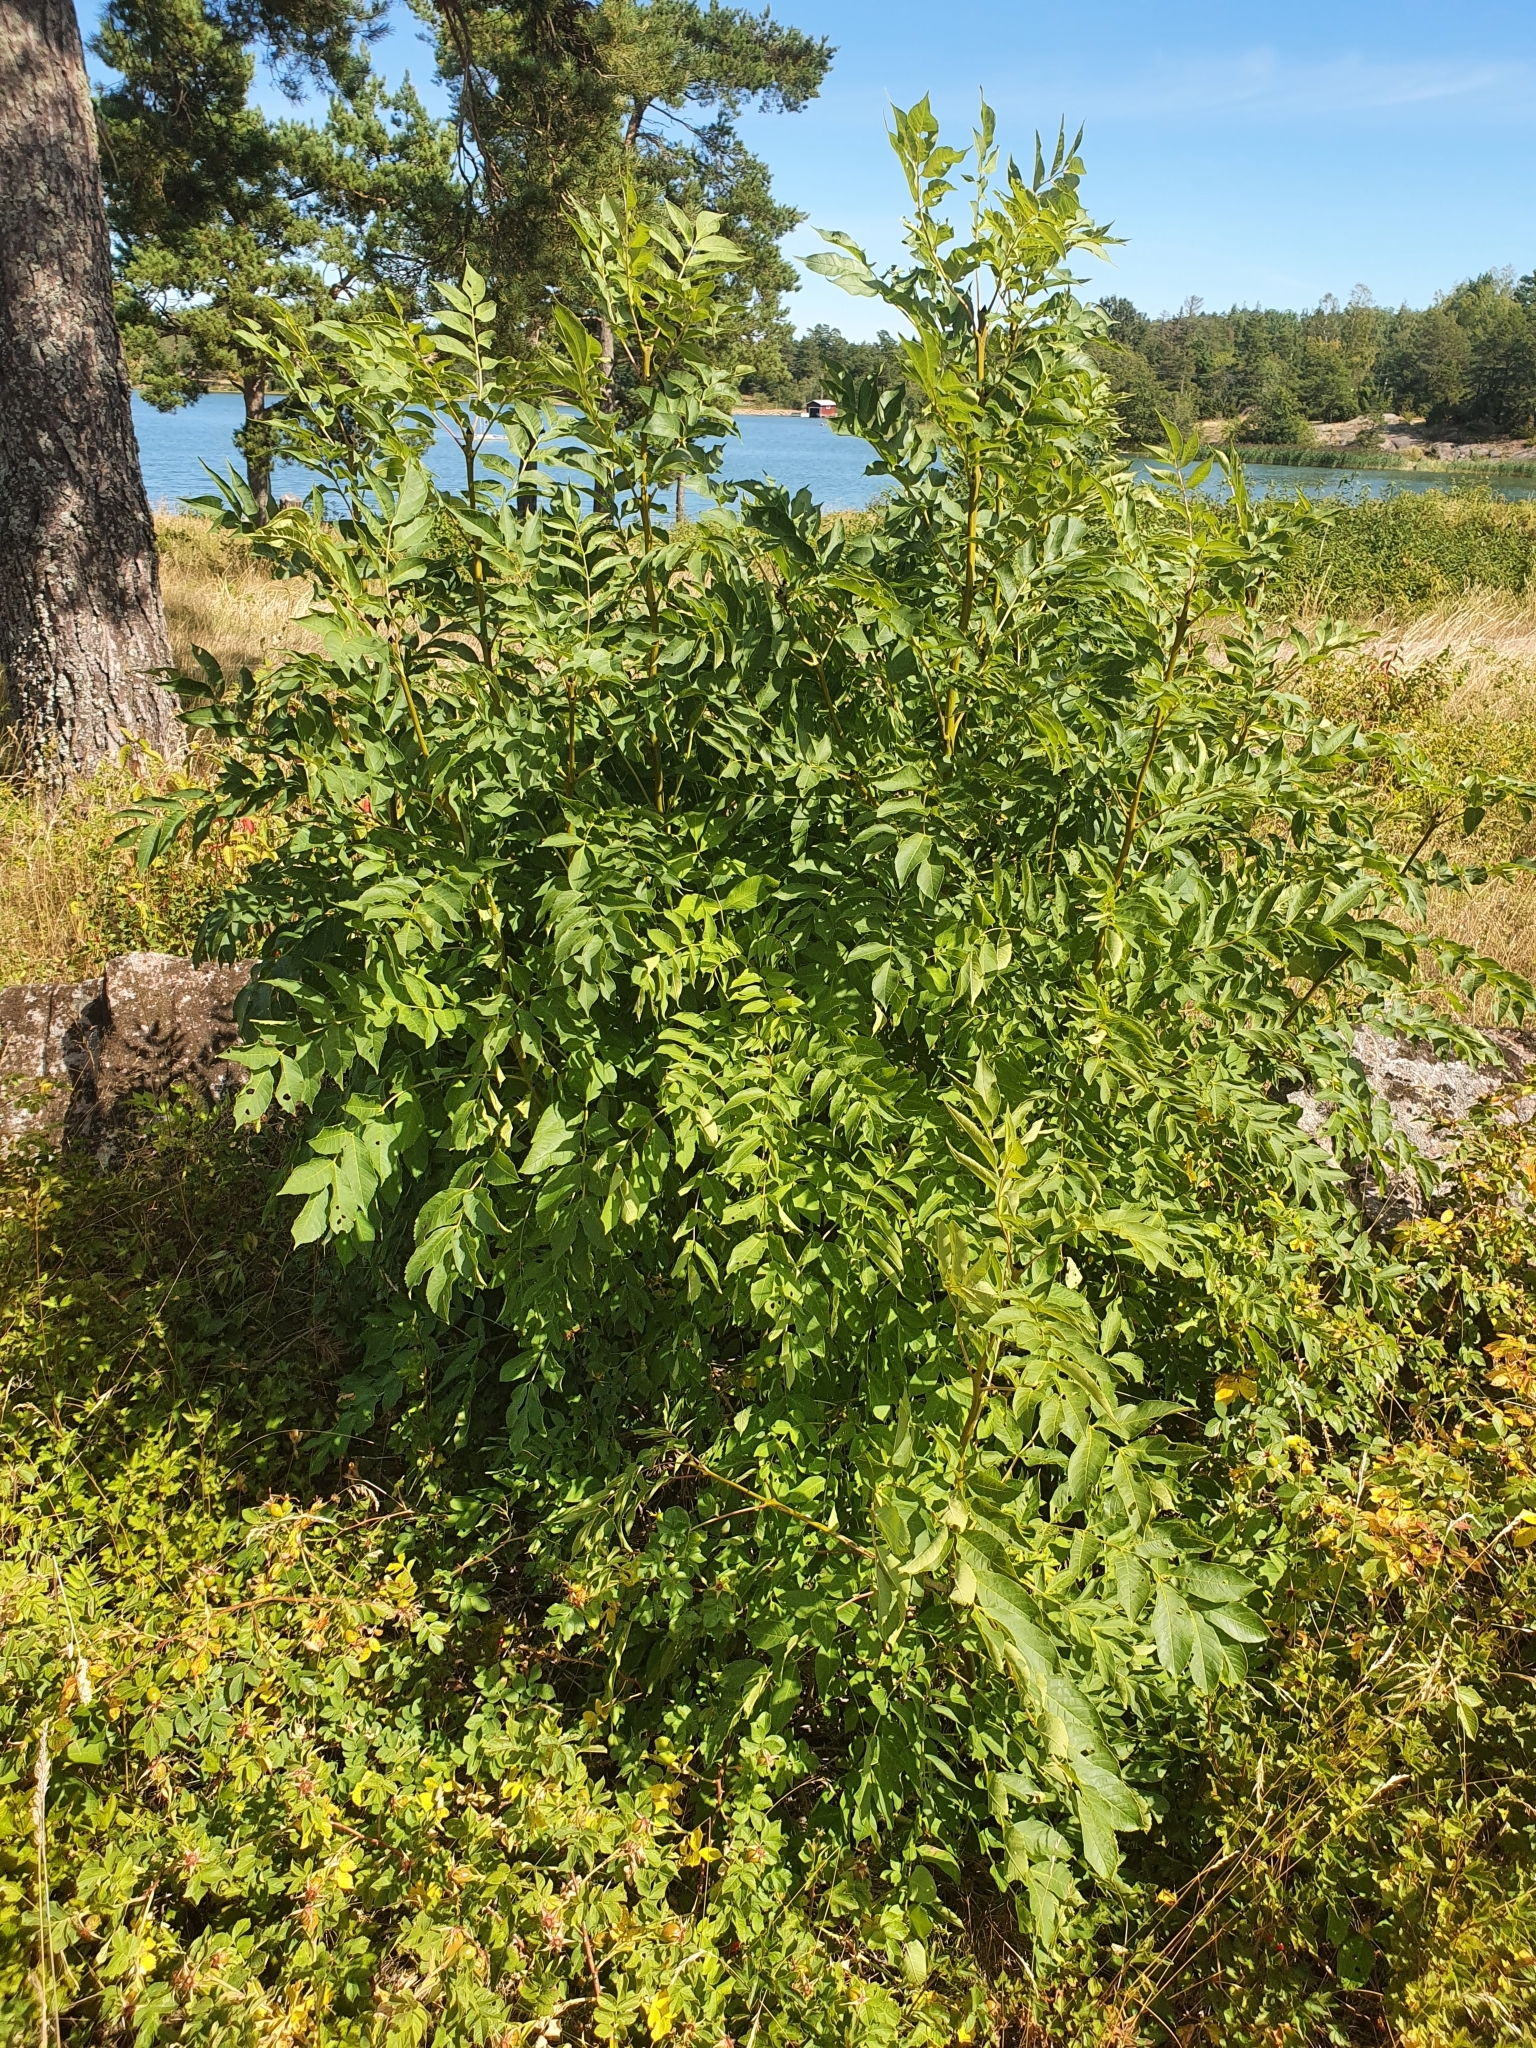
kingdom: Plantae
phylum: Tracheophyta
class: Magnoliopsida
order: Lamiales
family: Oleaceae
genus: Fraxinus
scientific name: Fraxinus excelsior
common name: European ash
